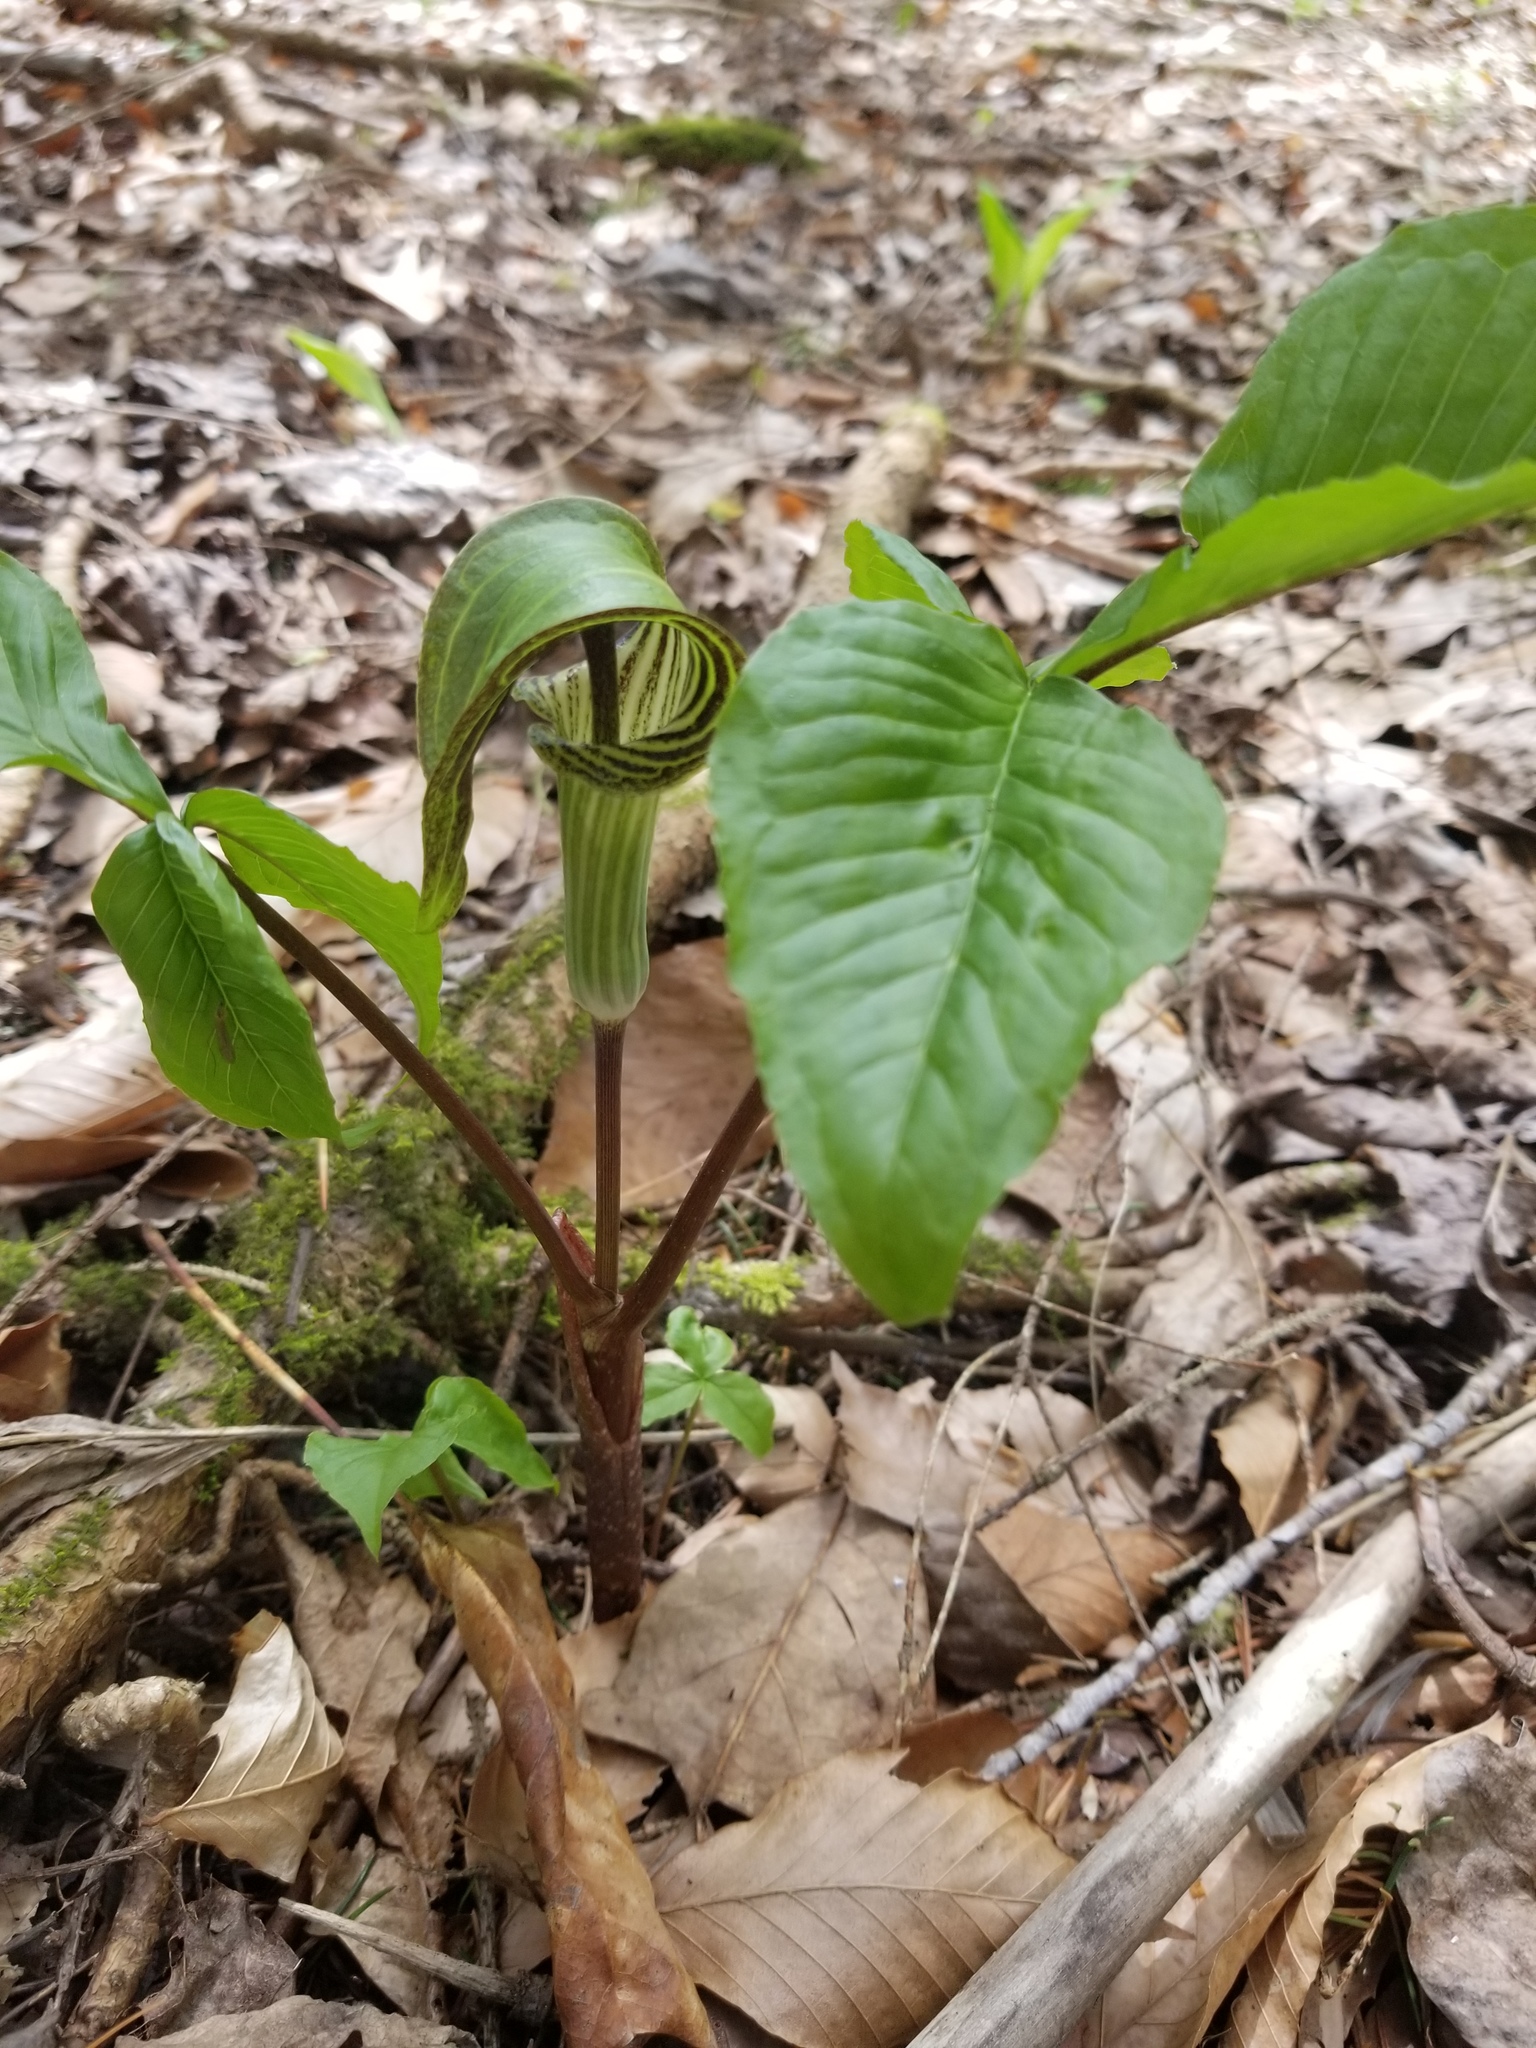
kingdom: Plantae
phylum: Tracheophyta
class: Liliopsida
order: Alismatales
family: Araceae
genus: Arisaema
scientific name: Arisaema triphyllum
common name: Jack-in-the-pulpit
